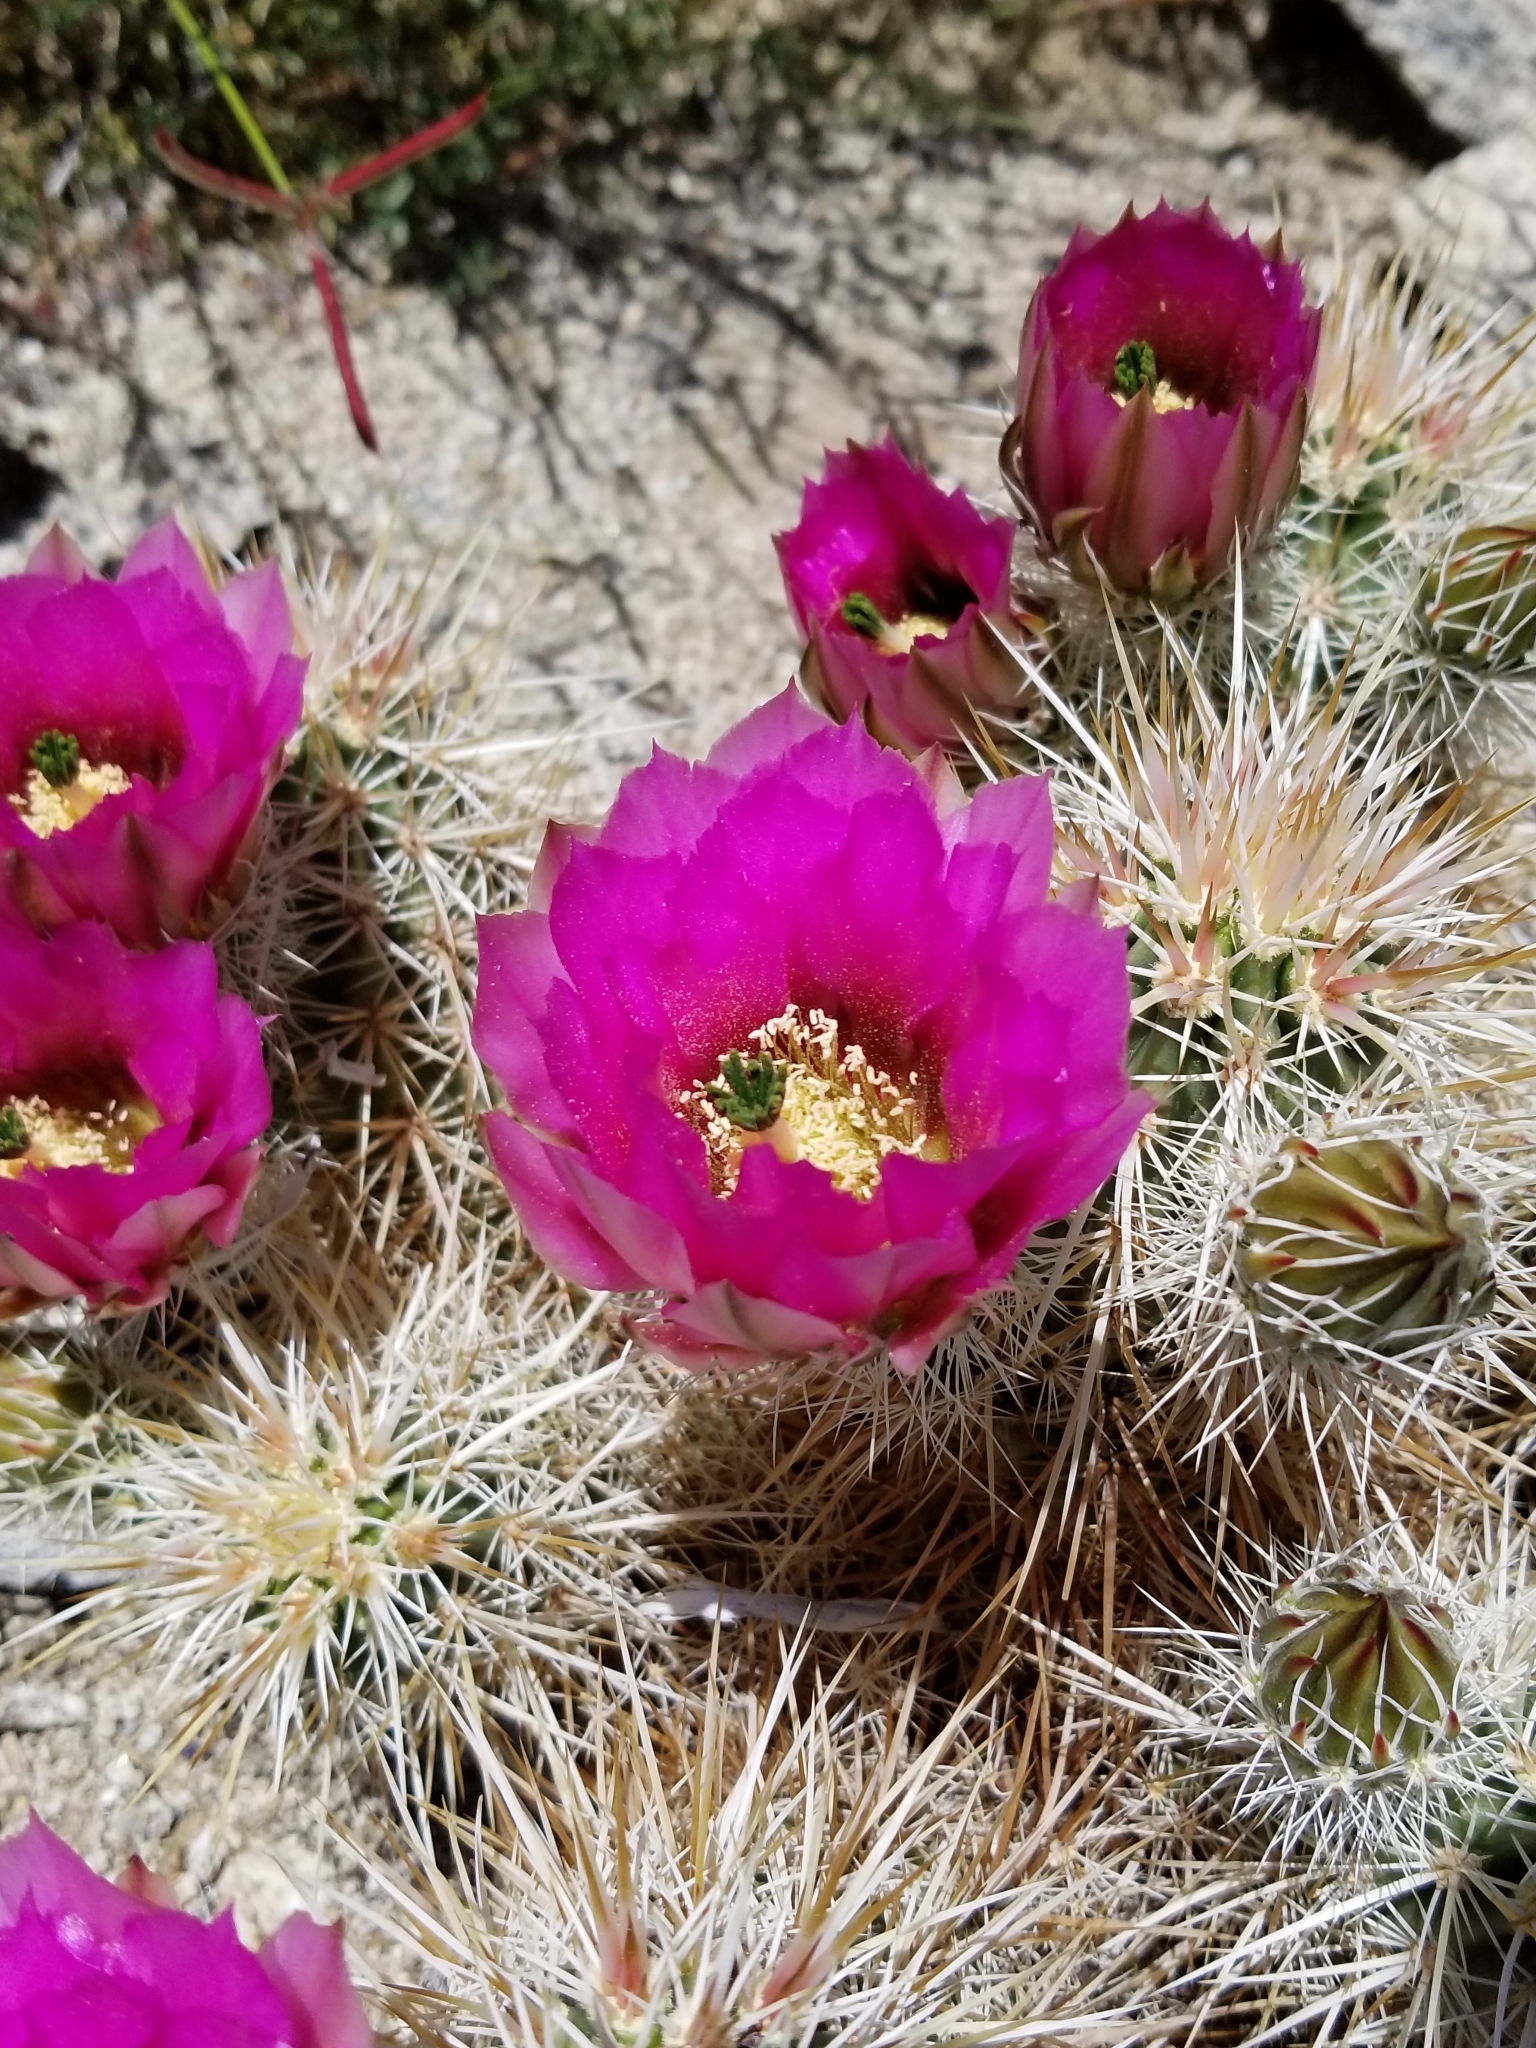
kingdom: Plantae
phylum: Tracheophyta
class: Magnoliopsida
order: Caryophyllales
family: Cactaceae
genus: Echinocereus
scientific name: Echinocereus engelmannii
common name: Engelmann's hedgehog cactus
